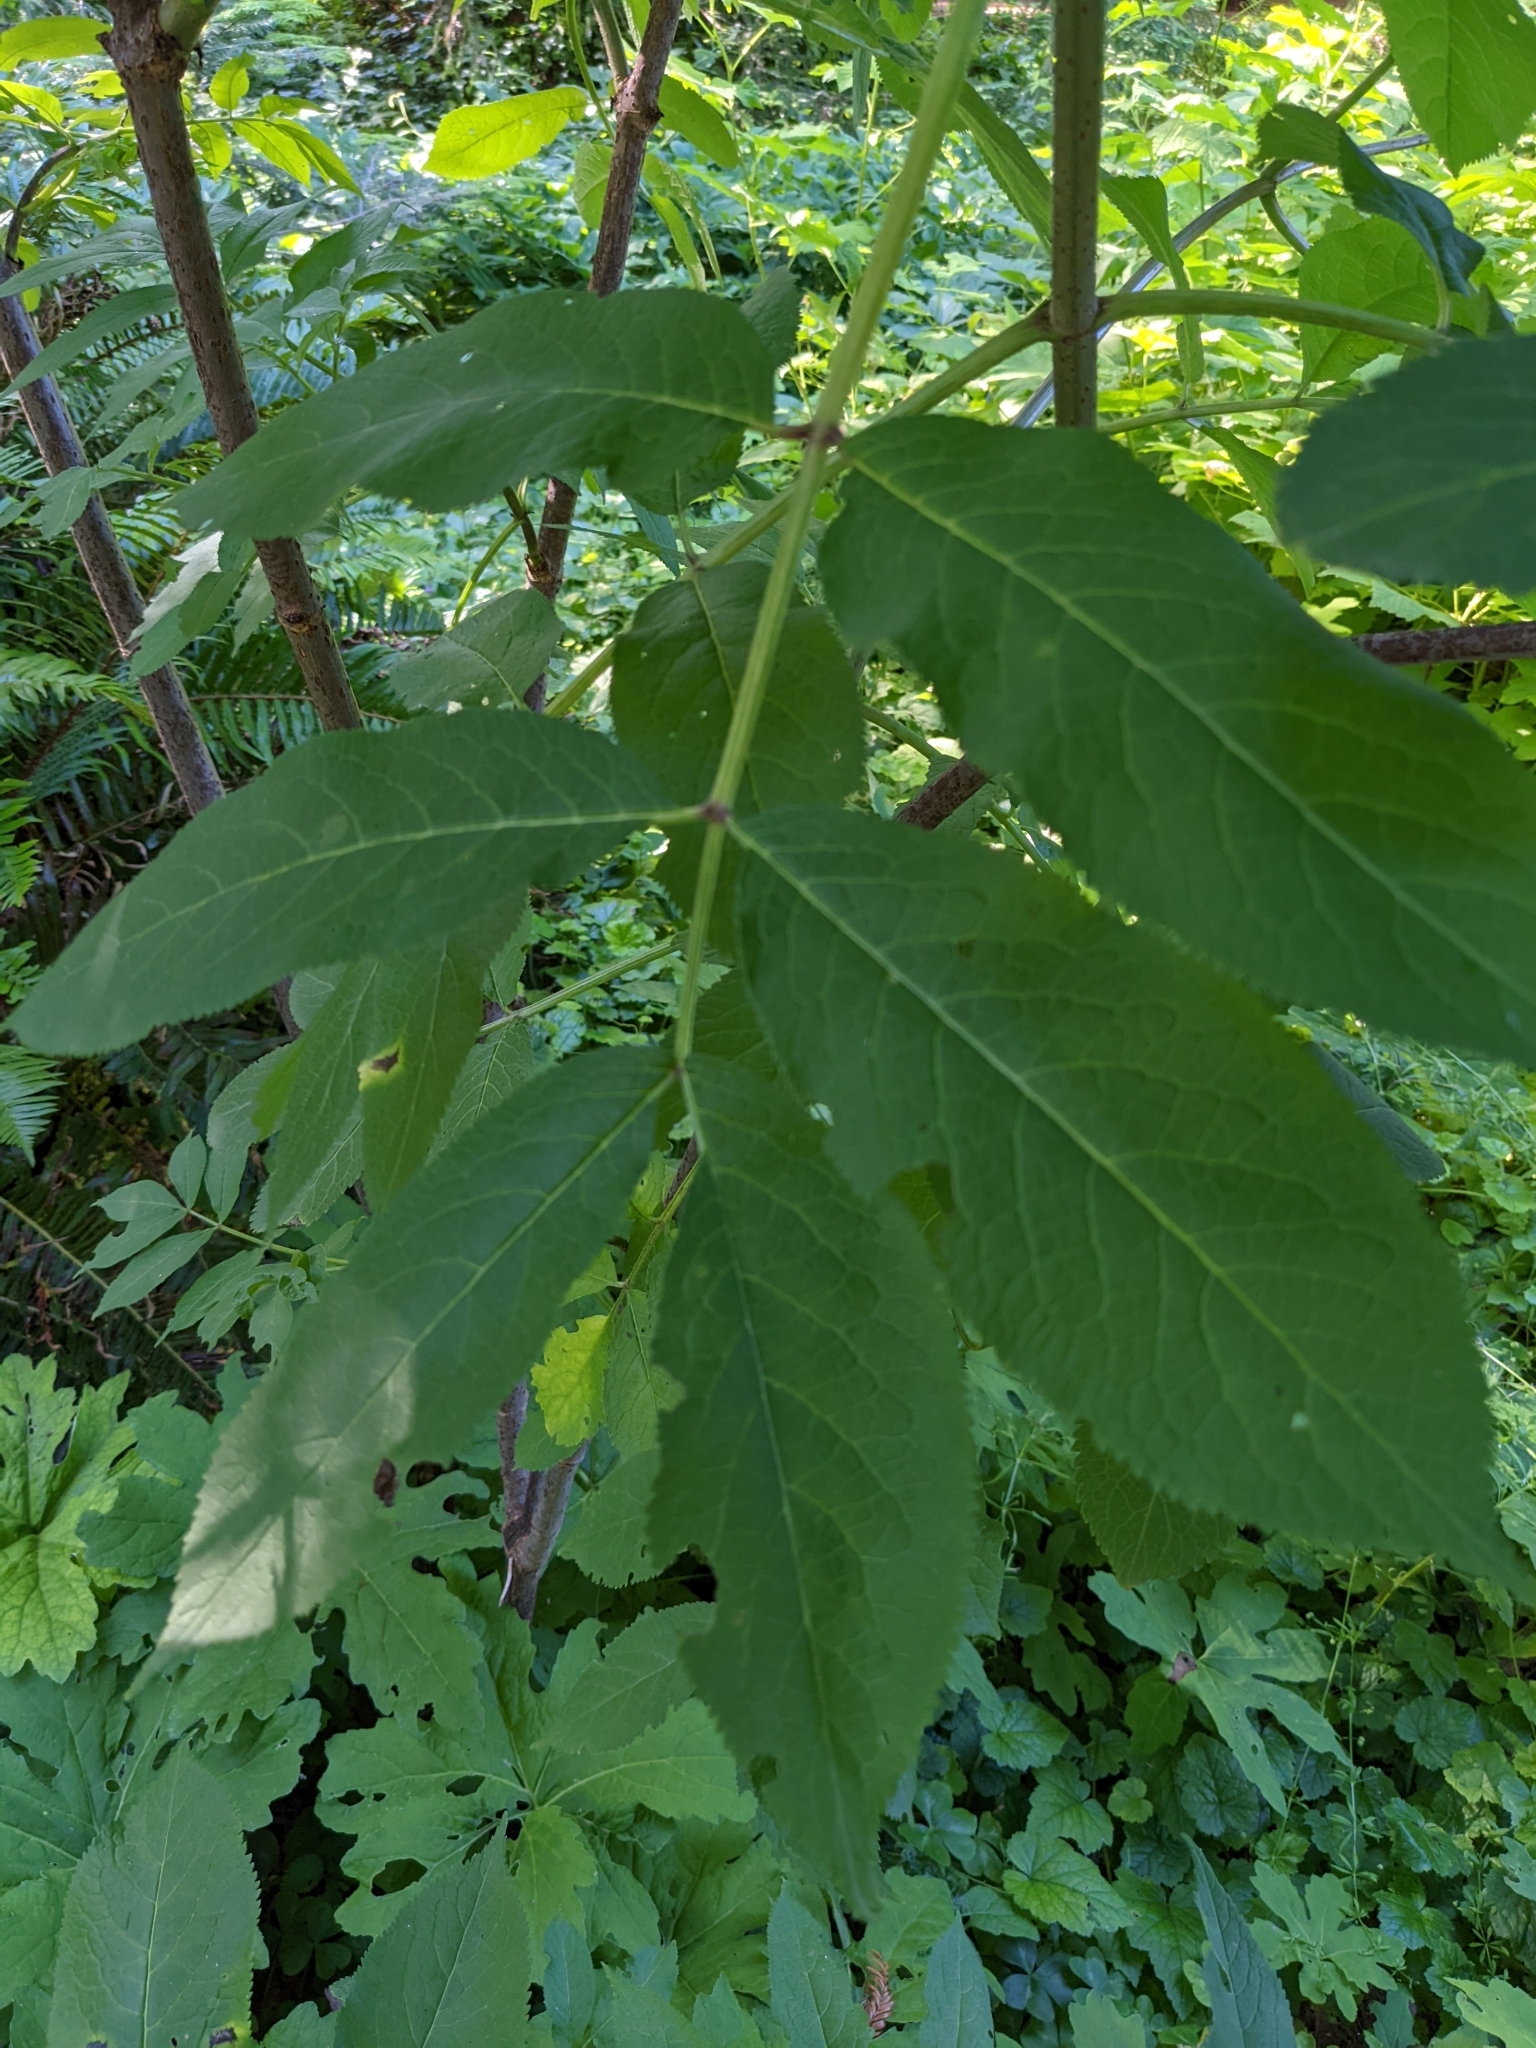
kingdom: Plantae
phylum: Tracheophyta
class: Magnoliopsida
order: Dipsacales
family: Viburnaceae
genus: Sambucus
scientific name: Sambucus racemosa
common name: Red-berried elder
